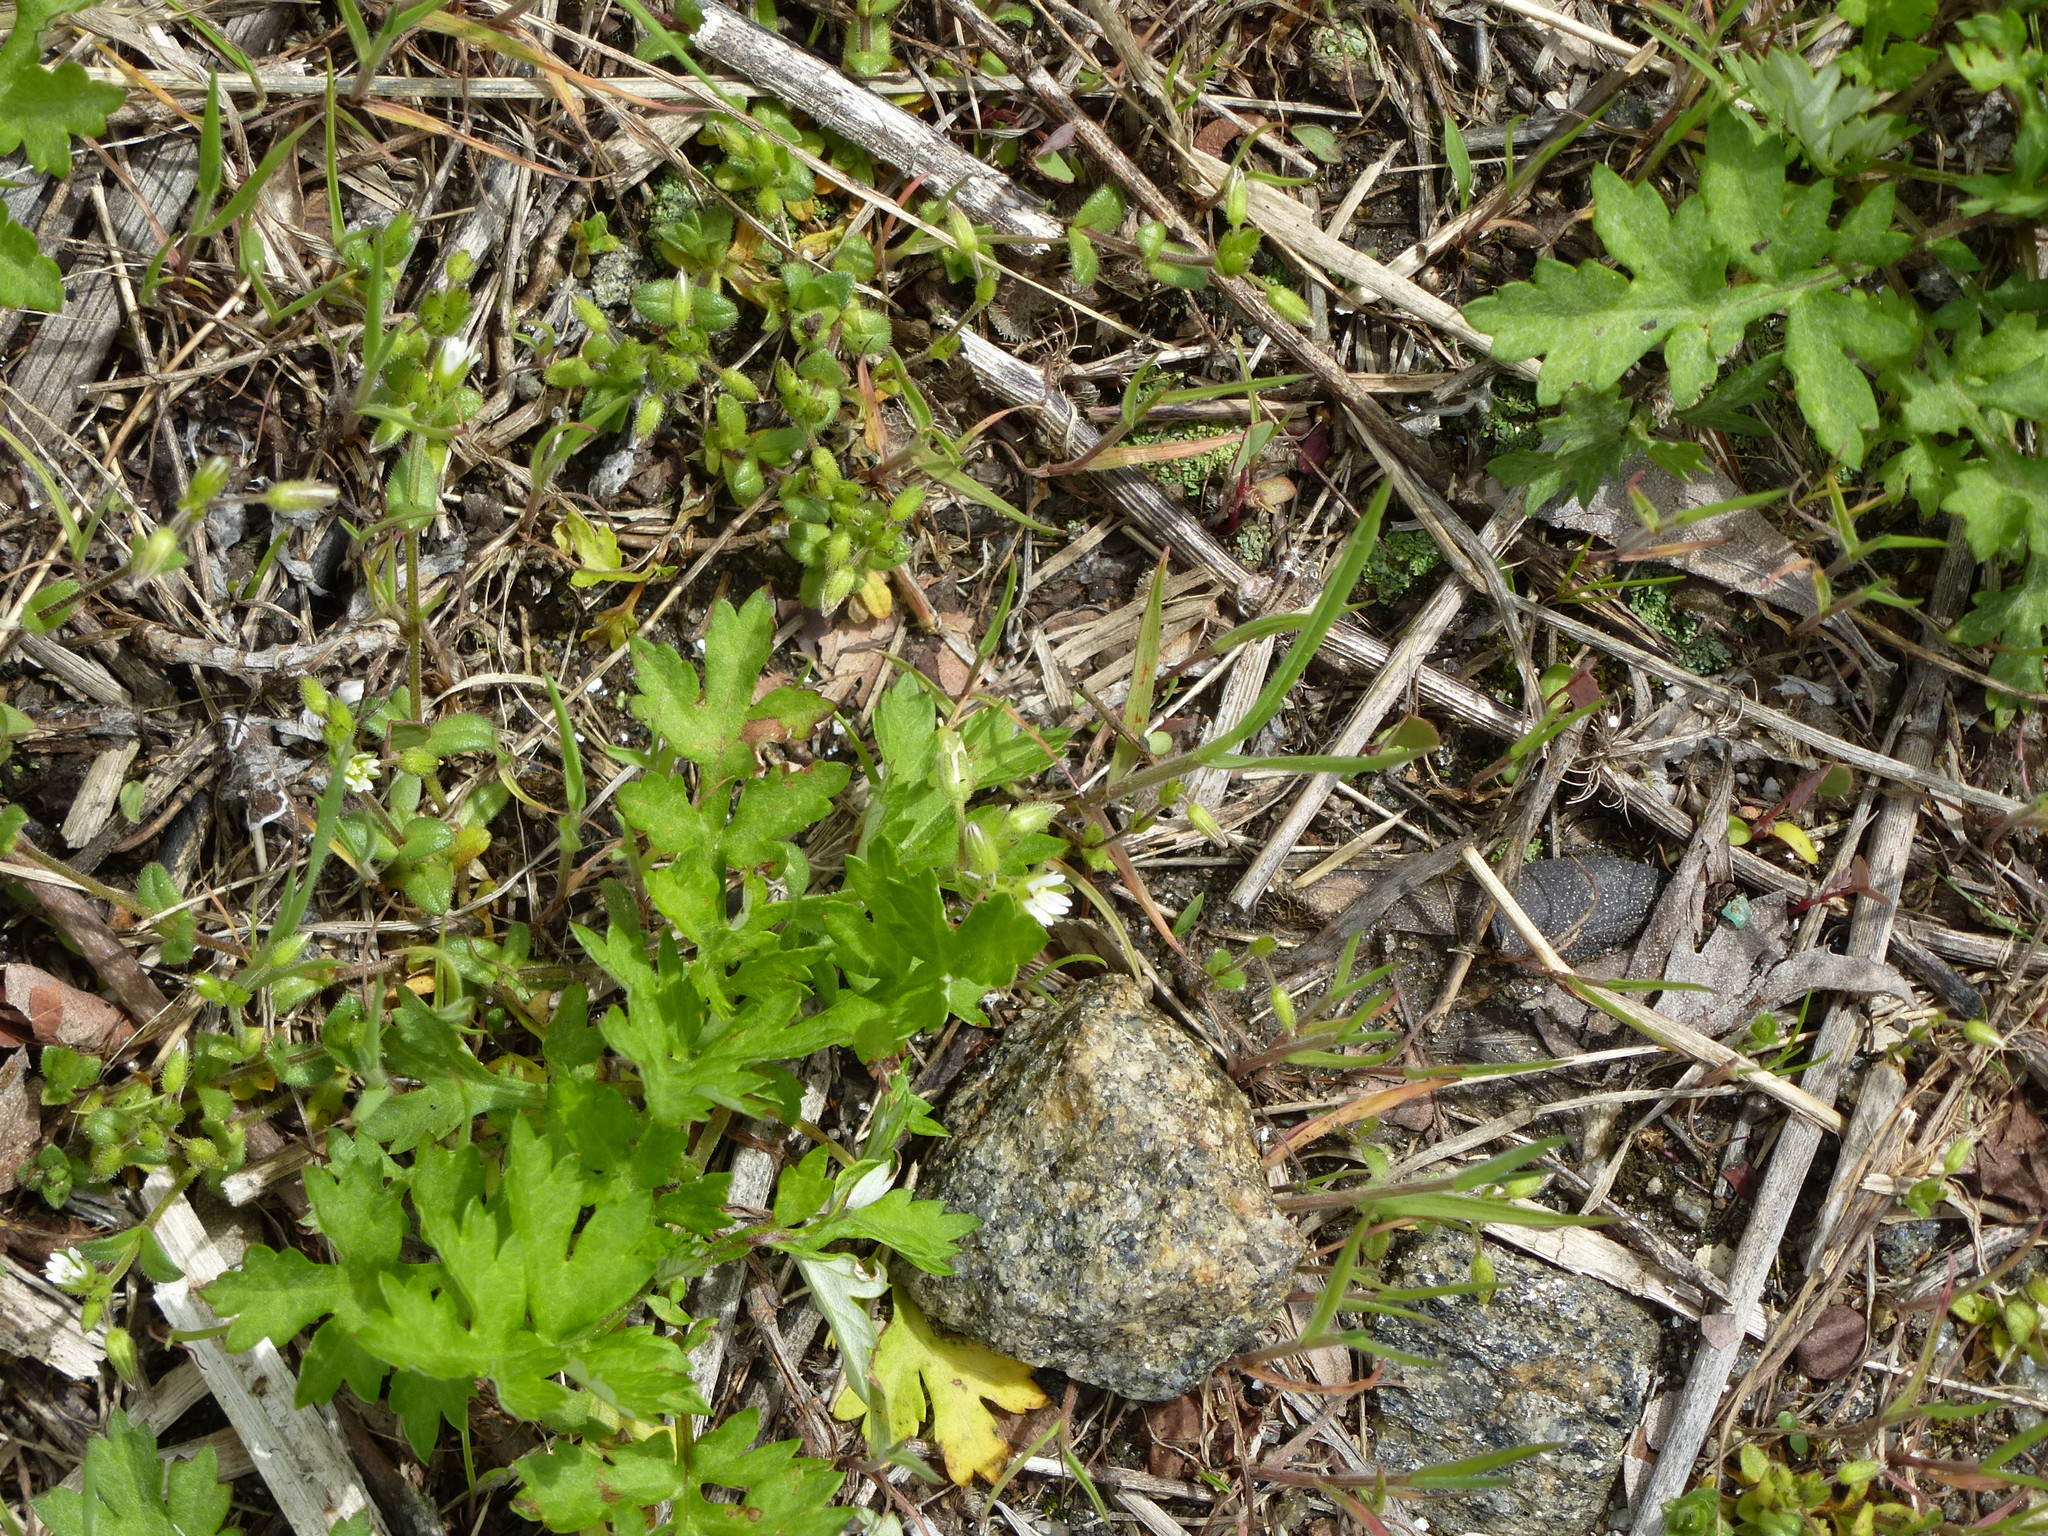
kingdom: Plantae
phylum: Tracheophyta
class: Magnoliopsida
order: Asterales
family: Asteraceae
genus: Artemisia
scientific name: Artemisia vulgaris
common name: Mugwort
